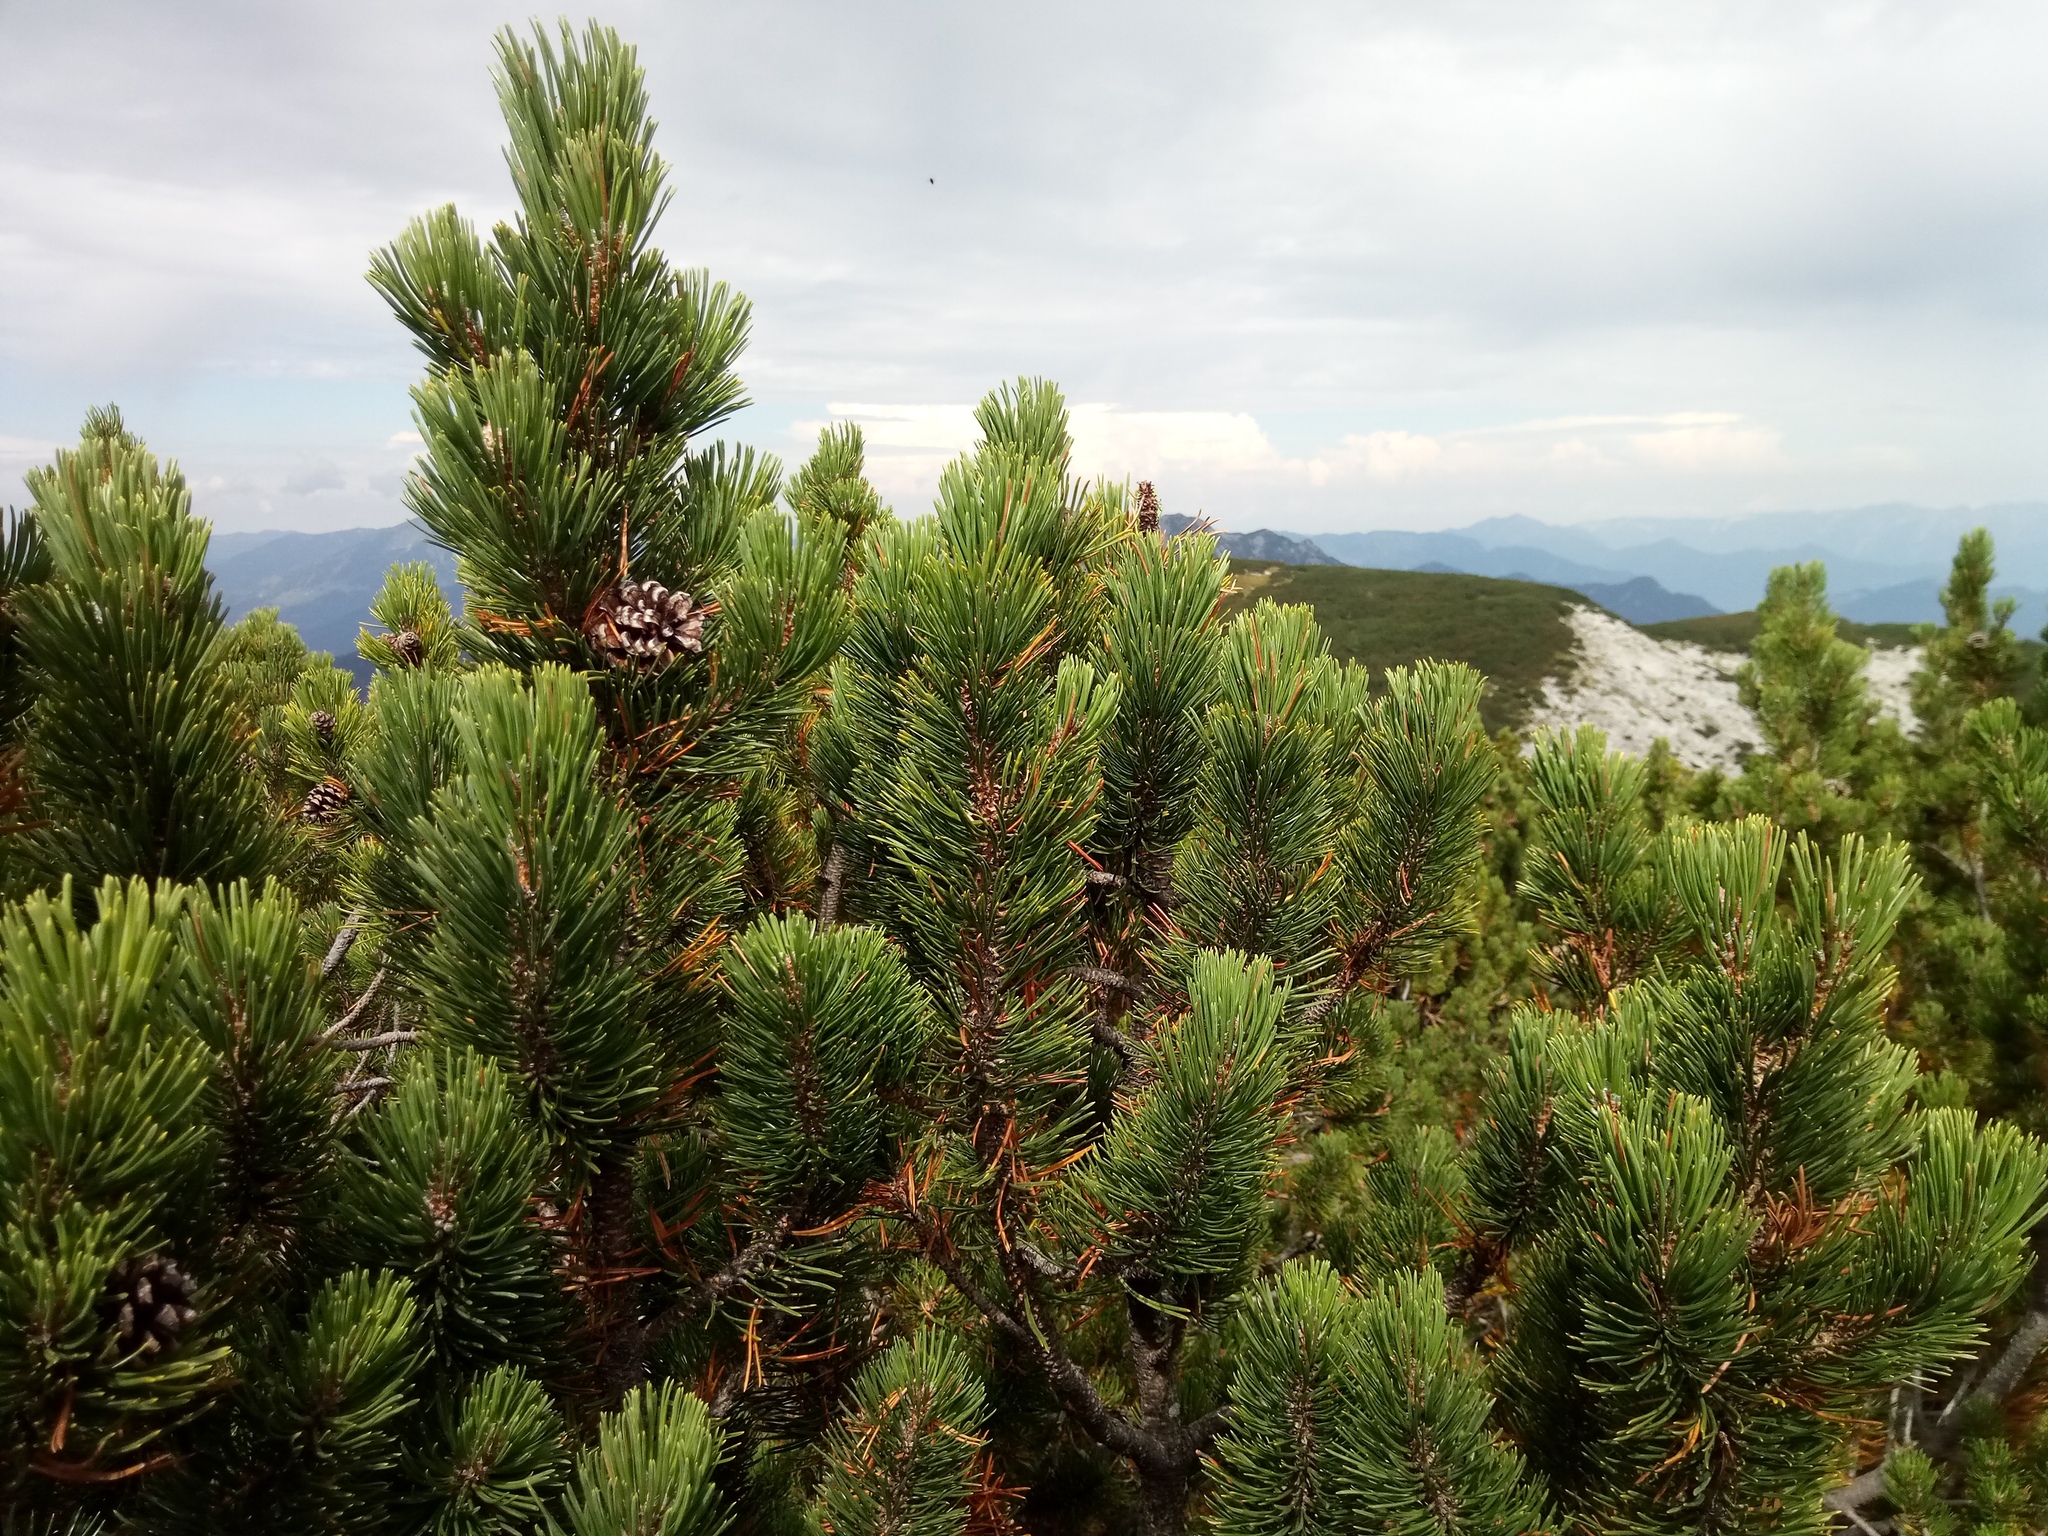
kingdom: Plantae
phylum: Tracheophyta
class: Pinopsida
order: Pinales
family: Pinaceae
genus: Pinus
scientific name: Pinus mugo
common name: Mugo pine
